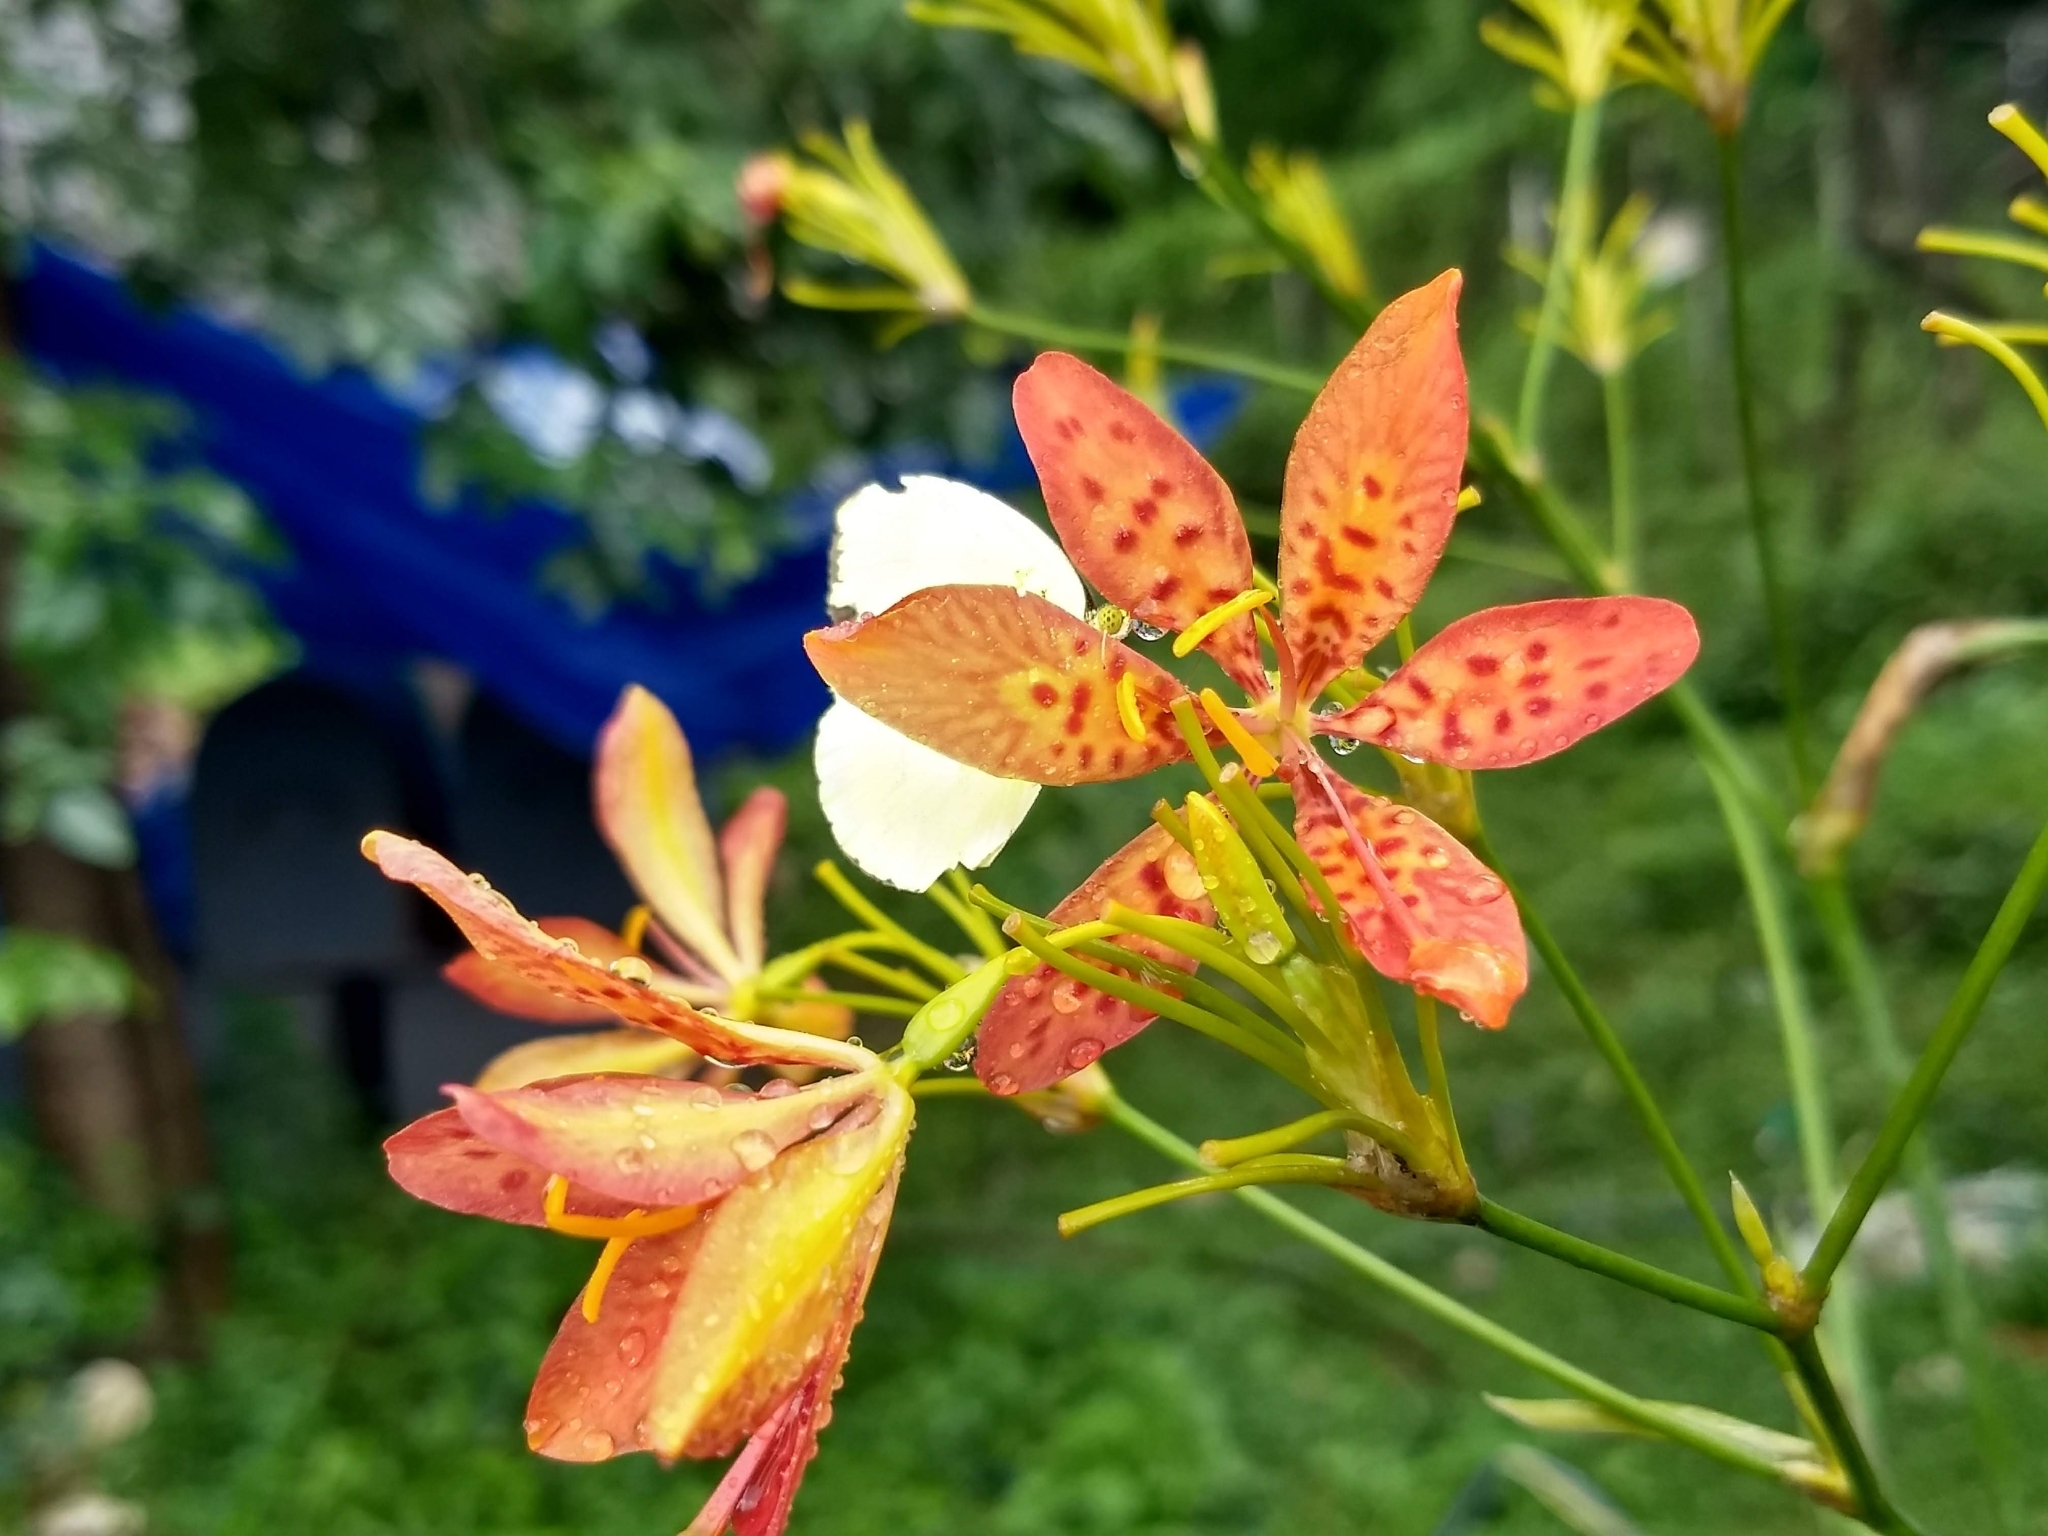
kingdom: Plantae
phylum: Tracheophyta
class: Liliopsida
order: Asparagales
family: Iridaceae
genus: Iris
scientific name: Iris domestica
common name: Belamcanda
